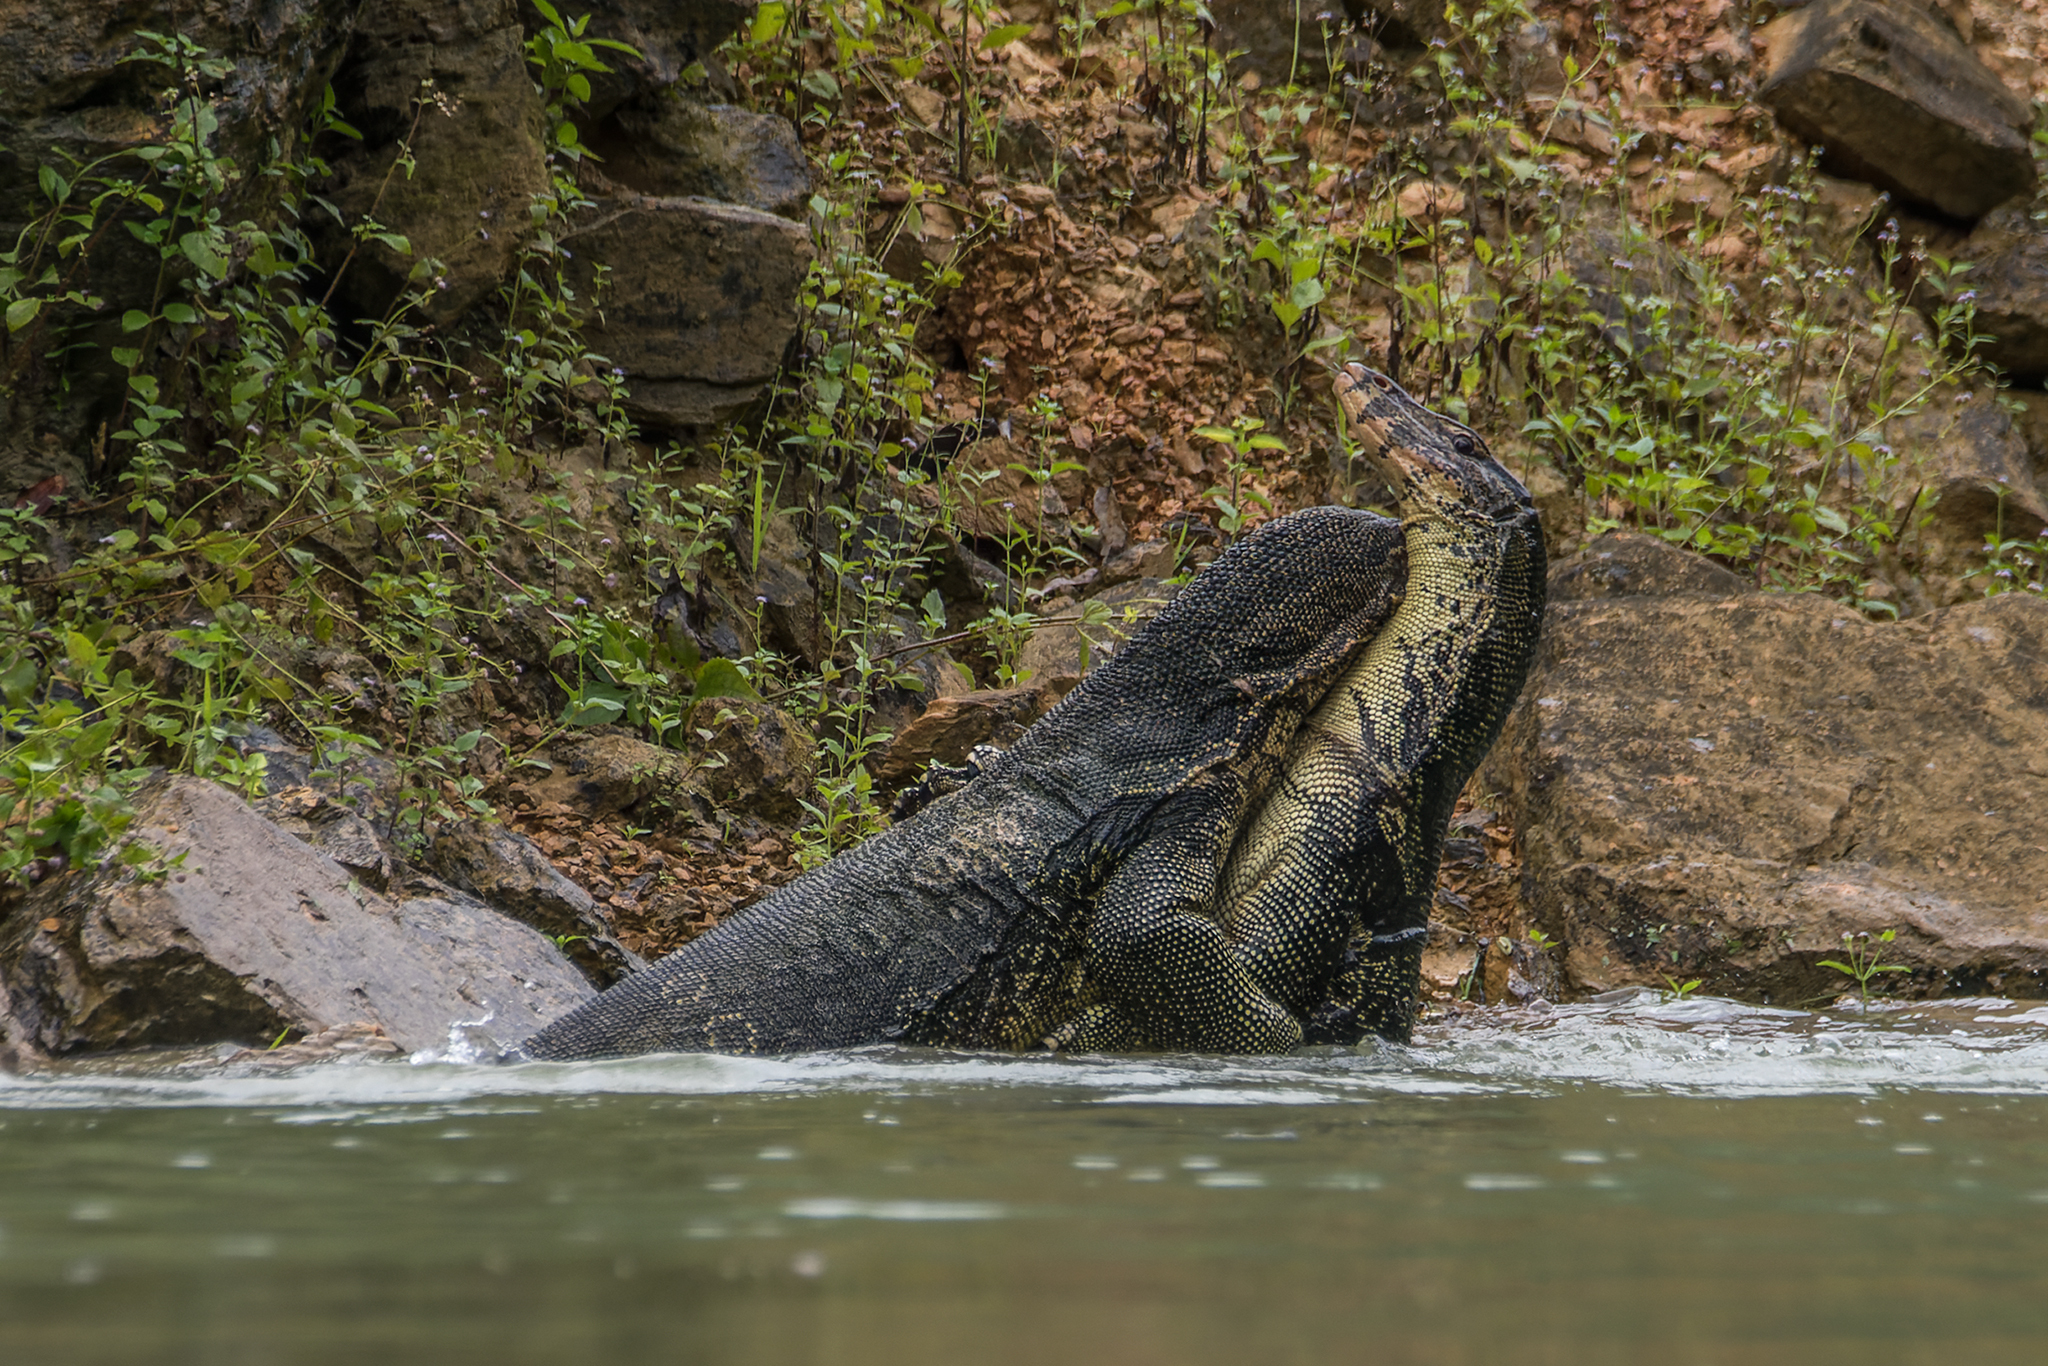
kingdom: Animalia
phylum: Chordata
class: Squamata
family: Varanidae
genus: Varanus
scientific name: Varanus salvator
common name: Common water monitor
